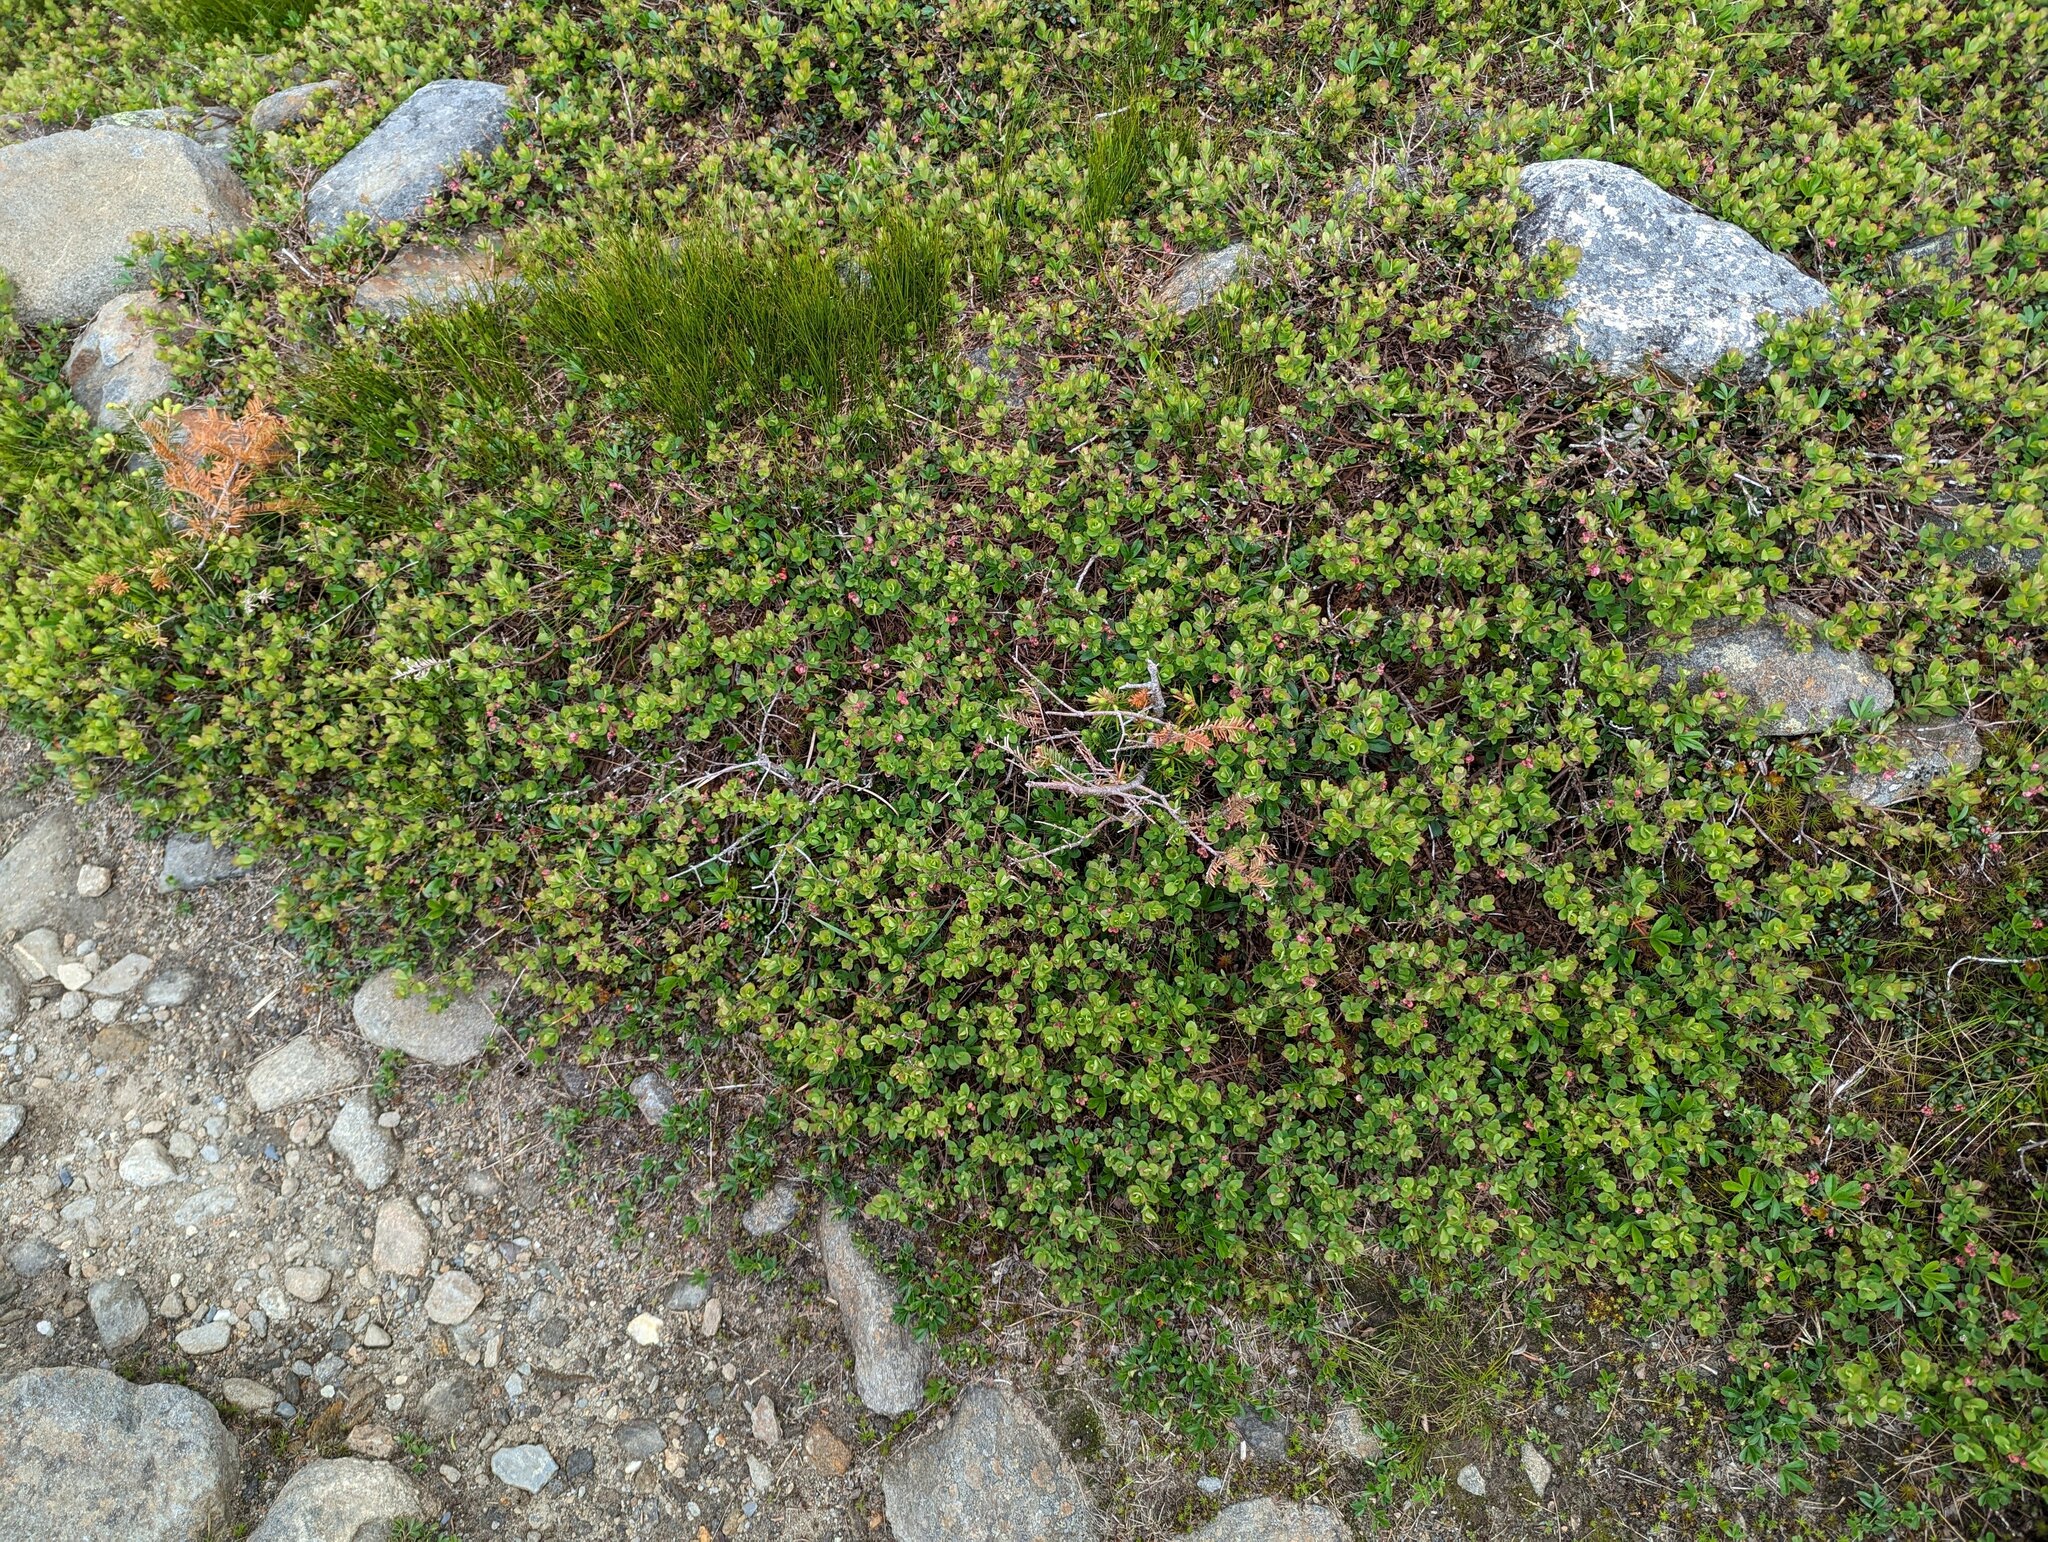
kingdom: Plantae
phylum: Tracheophyta
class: Magnoliopsida
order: Ericales
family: Ericaceae
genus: Vaccinium
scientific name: Vaccinium uliginosum
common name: Bog bilberry
